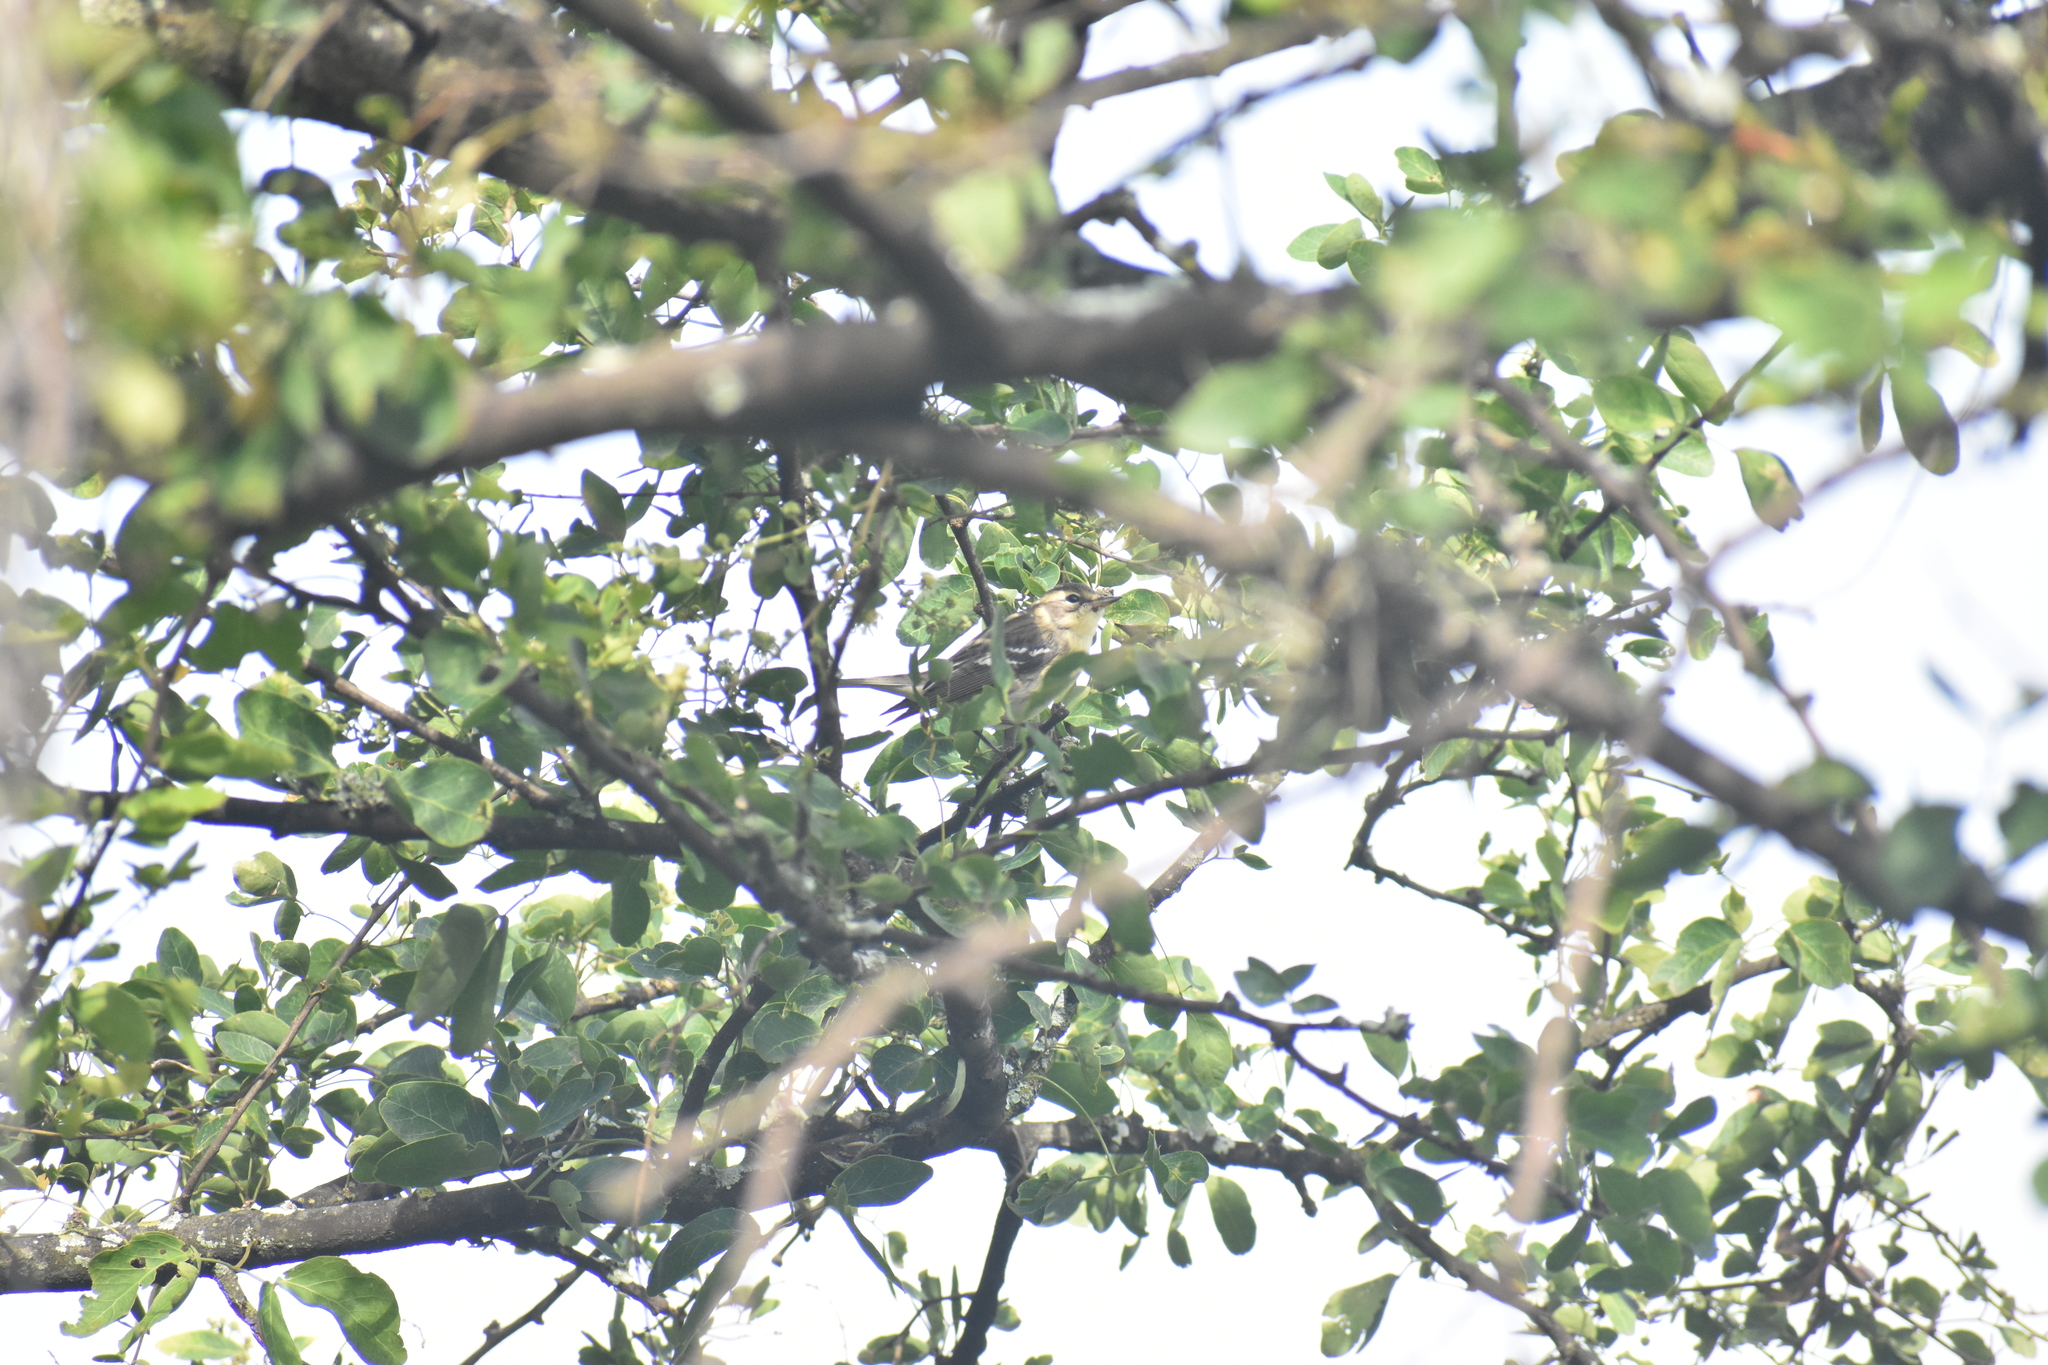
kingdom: Animalia
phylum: Chordata
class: Aves
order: Passeriformes
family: Parulidae
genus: Setophaga
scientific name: Setophaga fusca
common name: Blackburnian warbler
